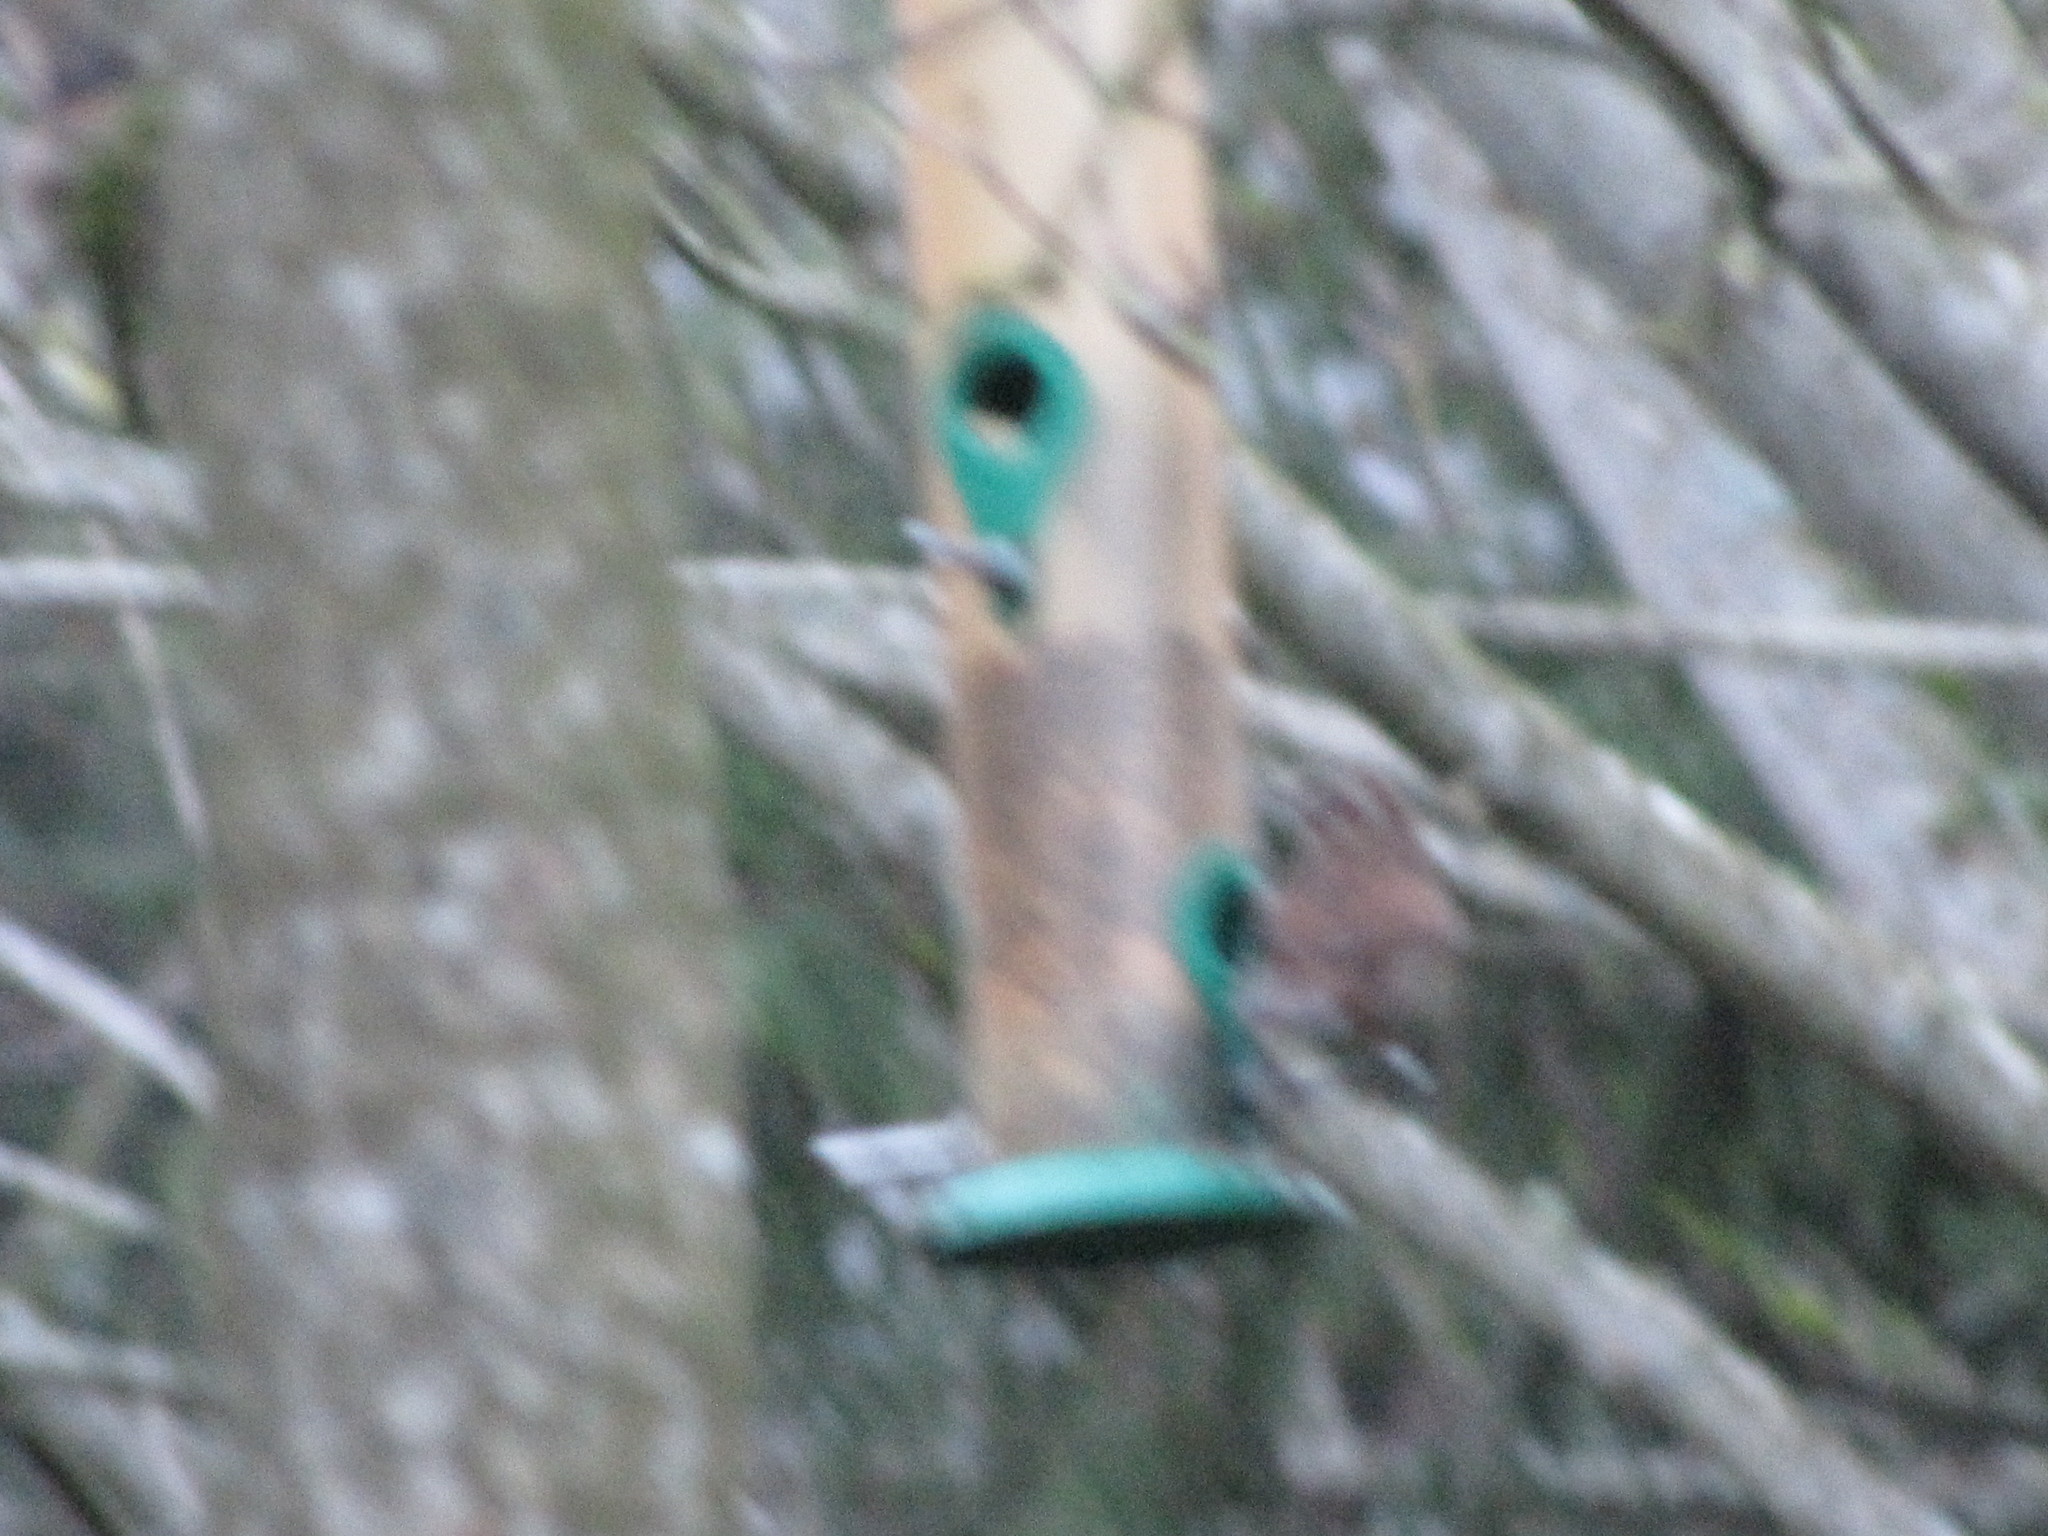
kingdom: Animalia
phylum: Chordata
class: Aves
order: Passeriformes
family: Passerellidae
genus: Melospiza
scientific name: Melospiza melodia
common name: Song sparrow
